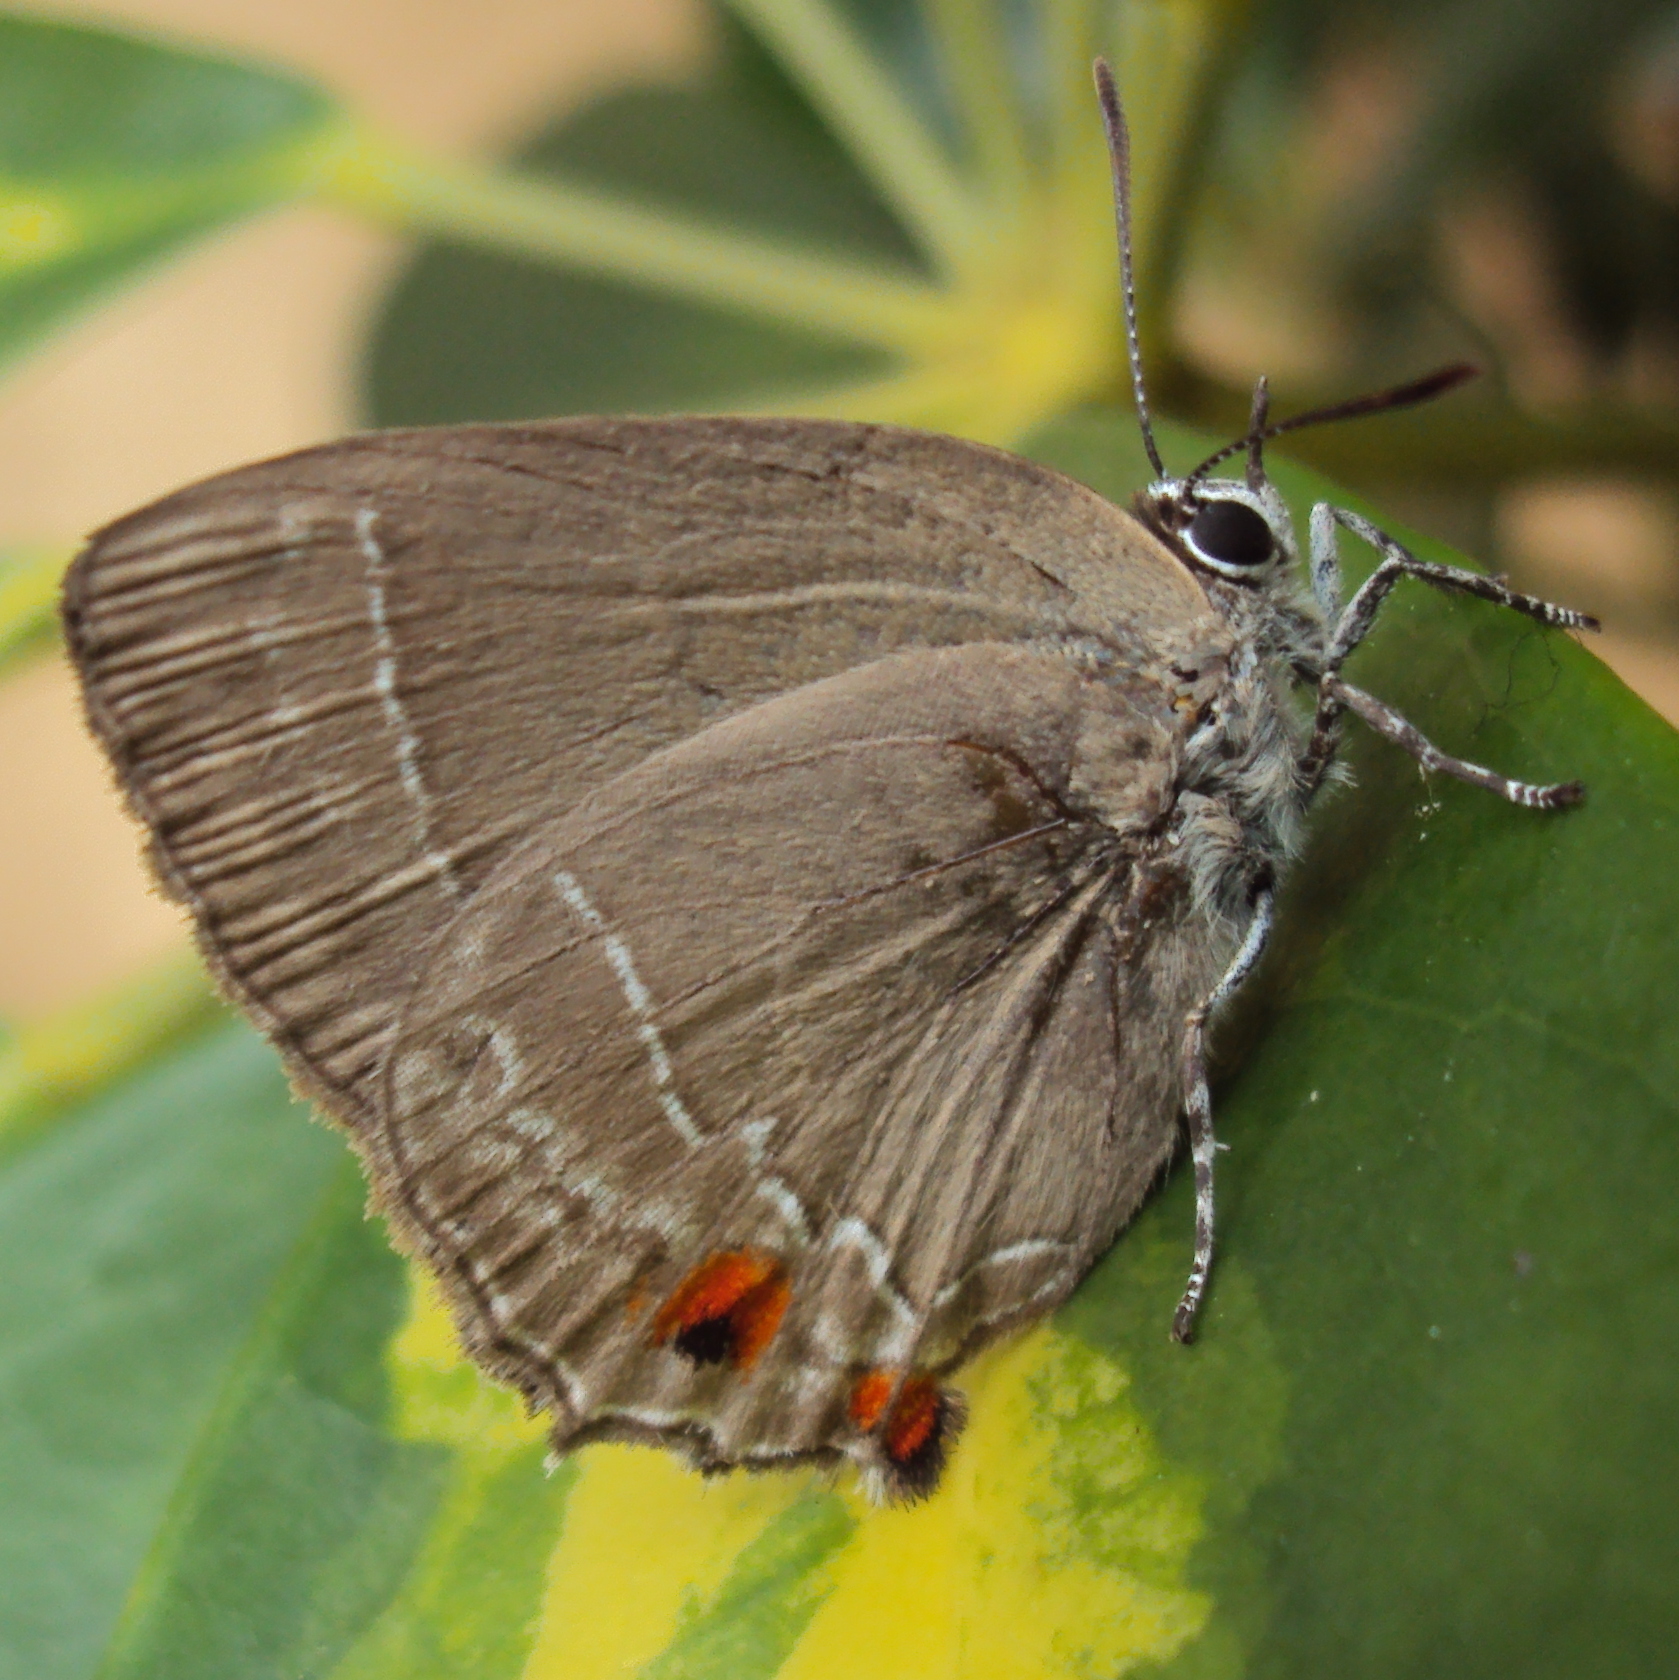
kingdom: Animalia
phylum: Arthropoda
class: Insecta
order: Lepidoptera
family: Lycaenidae
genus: Thereus
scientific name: Thereus ortalus
